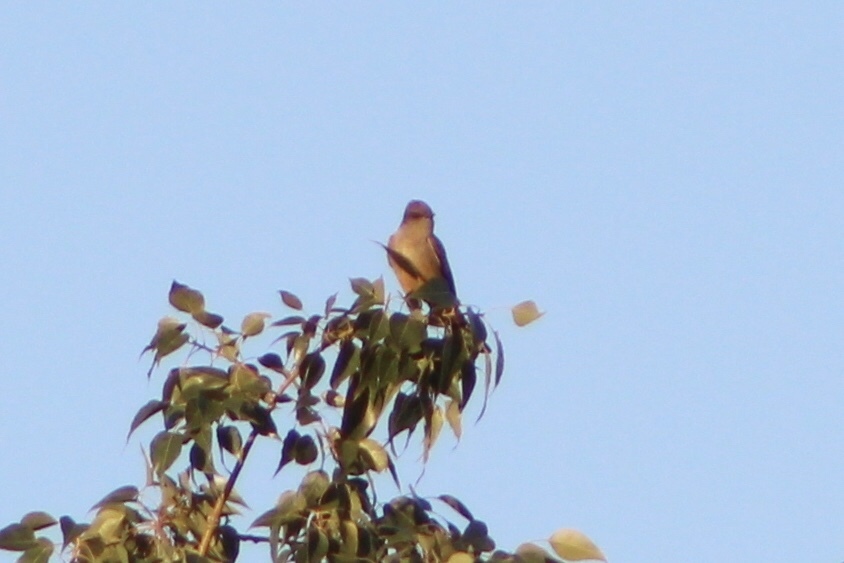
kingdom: Animalia
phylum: Chordata
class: Aves
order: Passeriformes
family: Tyrannidae
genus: Sayornis
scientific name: Sayornis saya
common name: Say's phoebe
